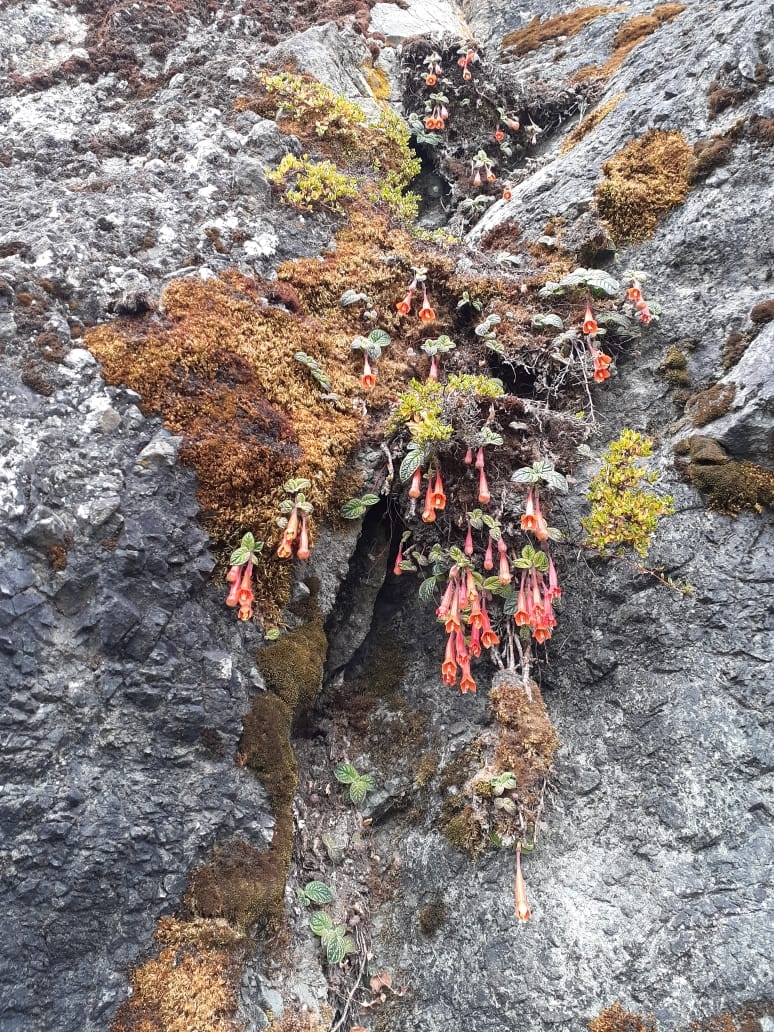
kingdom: Plantae
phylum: Tracheophyta
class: Magnoliopsida
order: Myrtales
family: Onagraceae
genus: Fuchsia
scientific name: Fuchsia apetala
